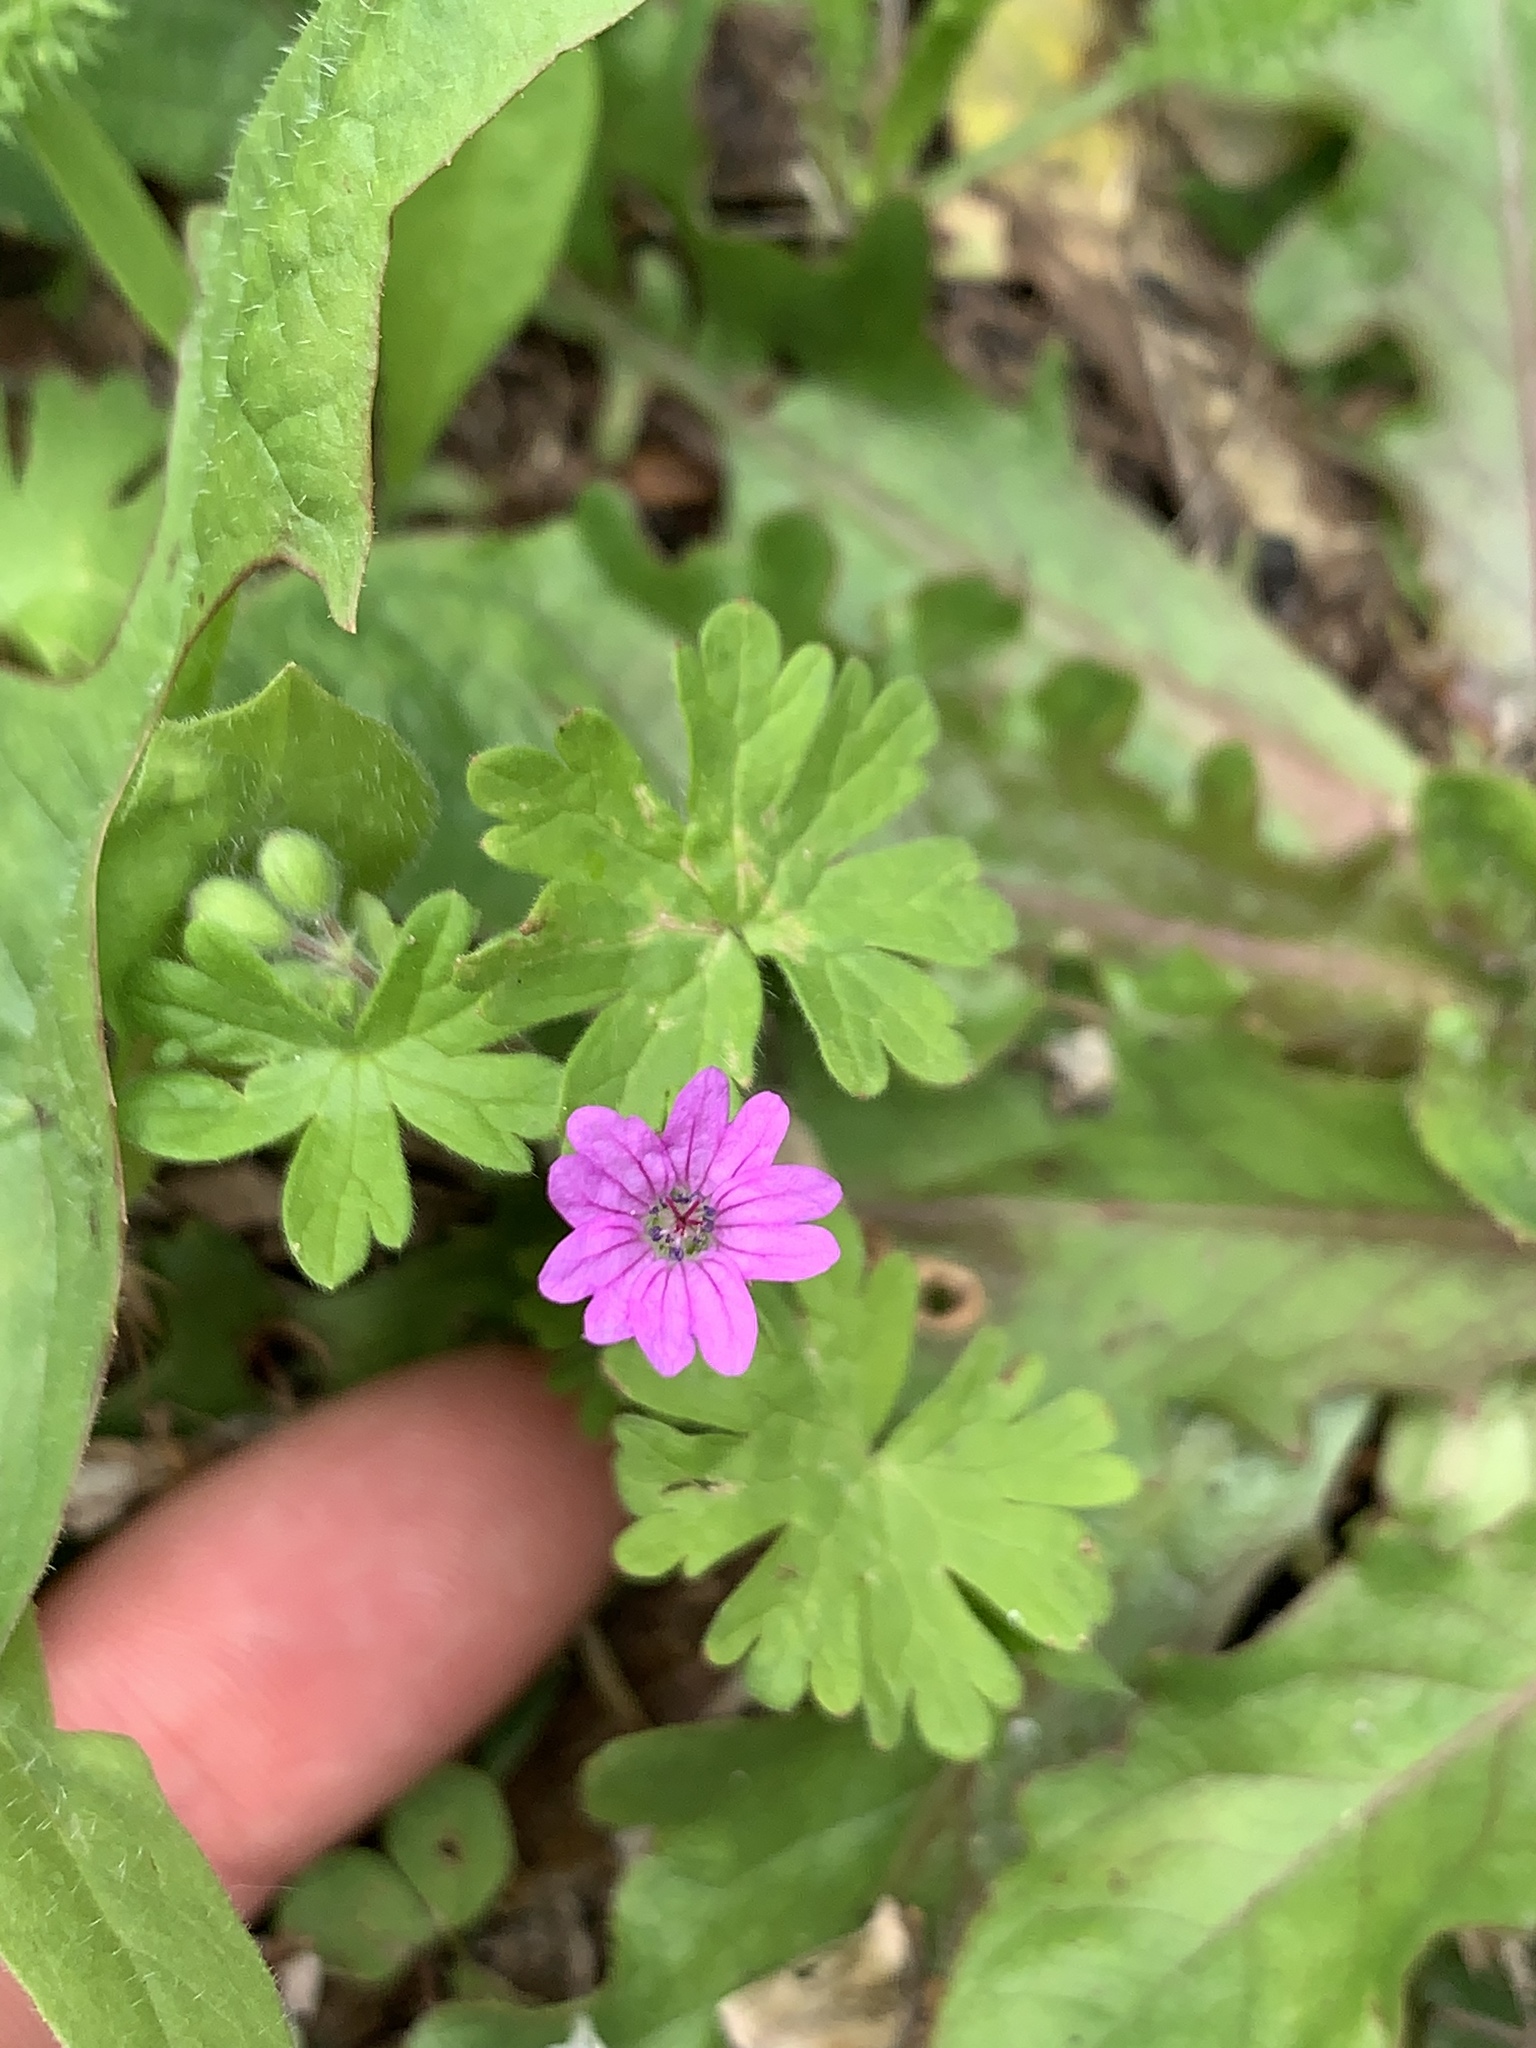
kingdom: Plantae
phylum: Tracheophyta
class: Magnoliopsida
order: Geraniales
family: Geraniaceae
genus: Geranium
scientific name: Geranium molle
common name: Dove's-foot crane's-bill
